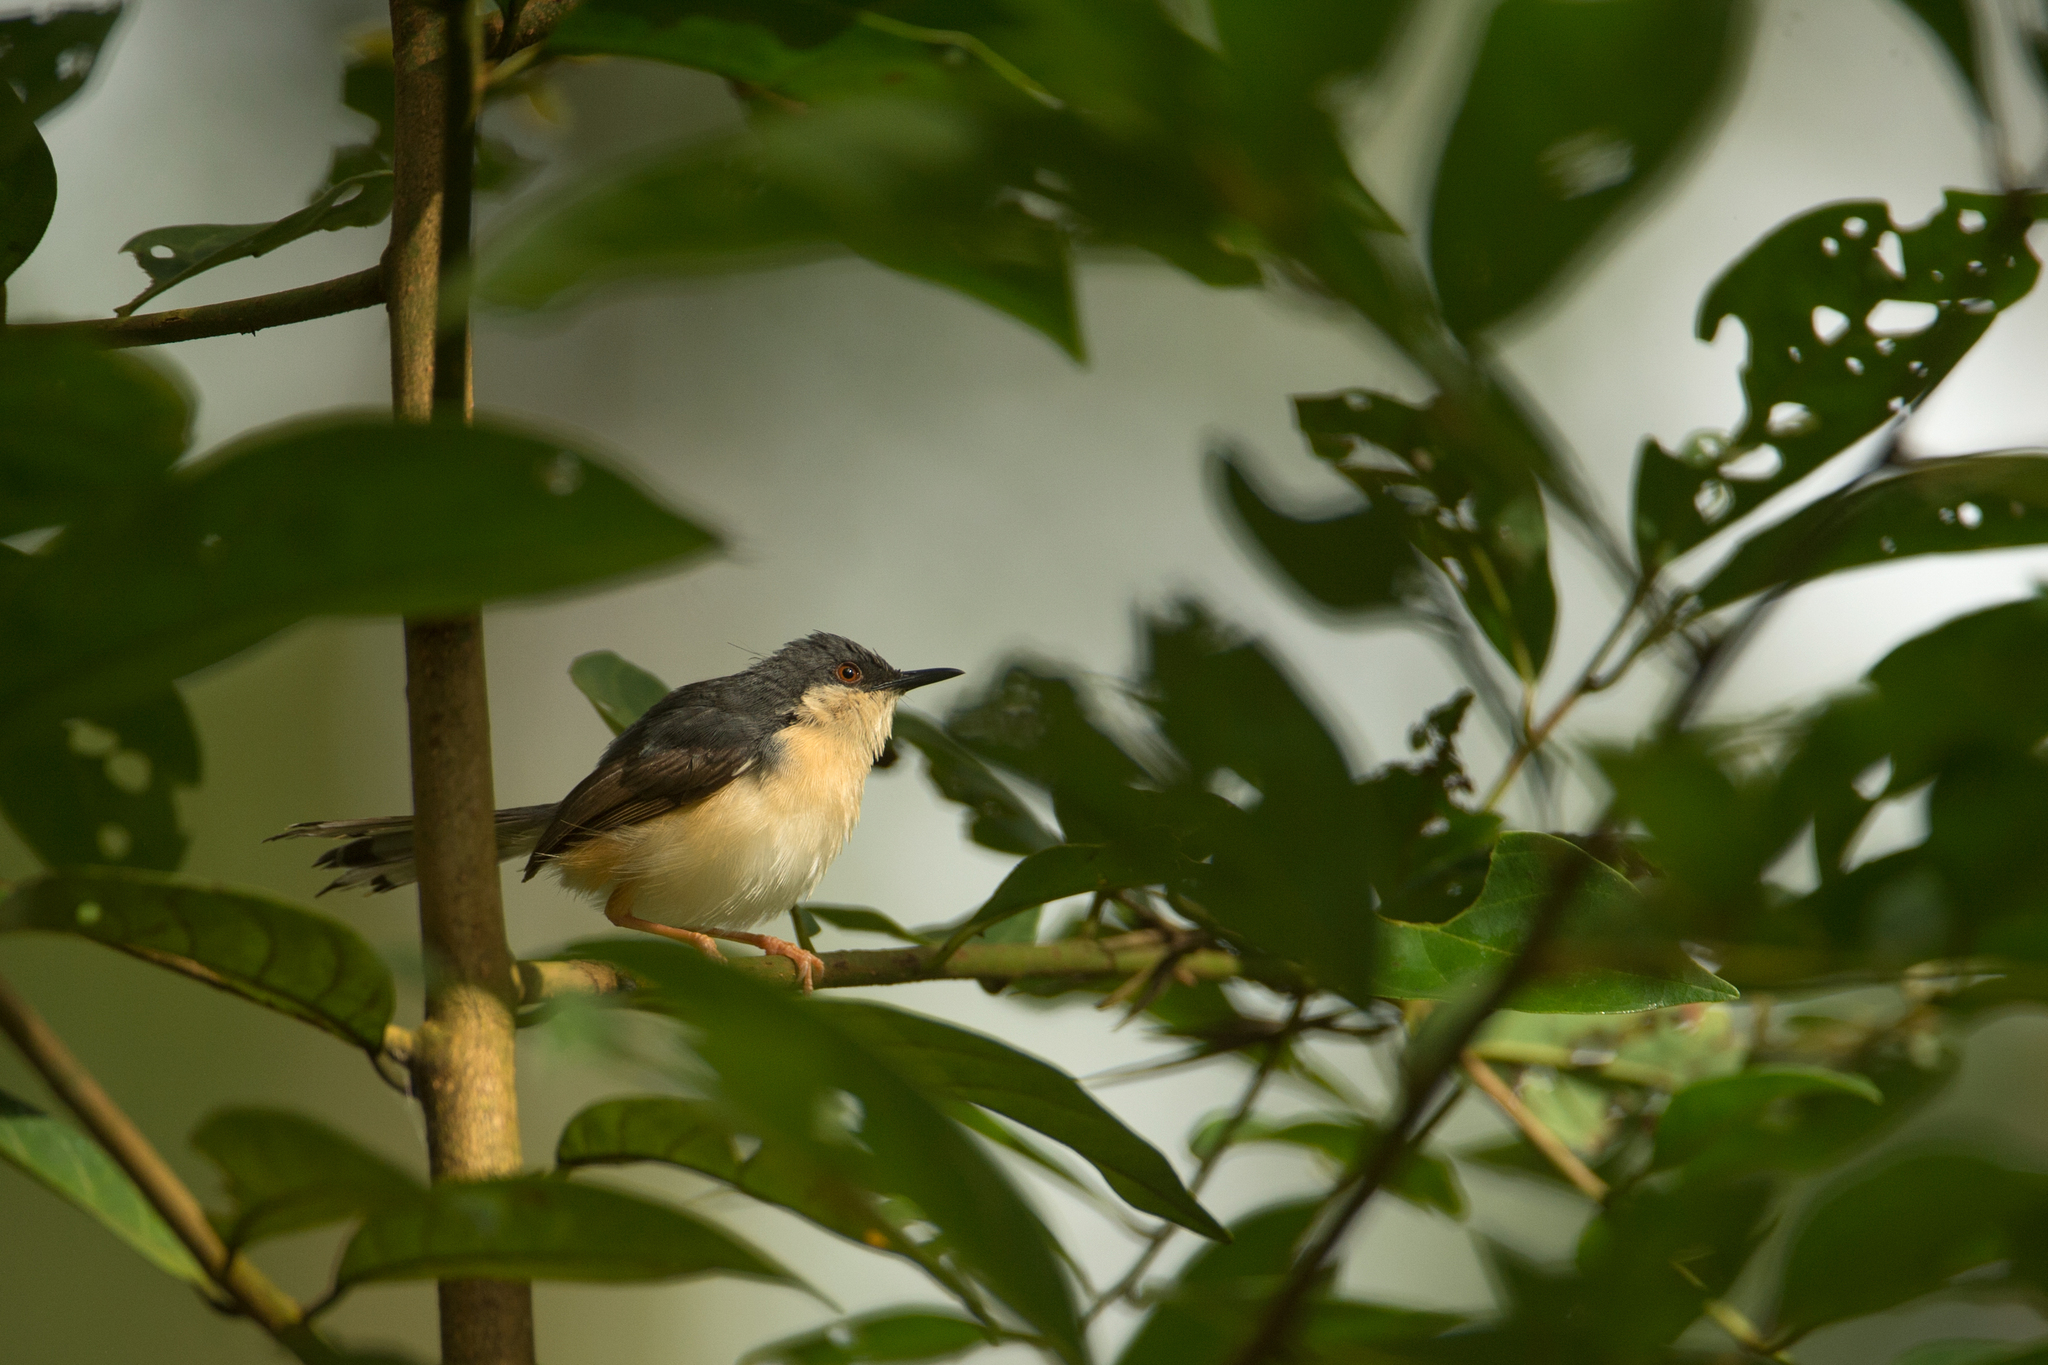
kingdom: Animalia
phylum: Chordata
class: Aves
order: Passeriformes
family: Cisticolidae
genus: Prinia
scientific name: Prinia socialis
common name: Ashy prinia
